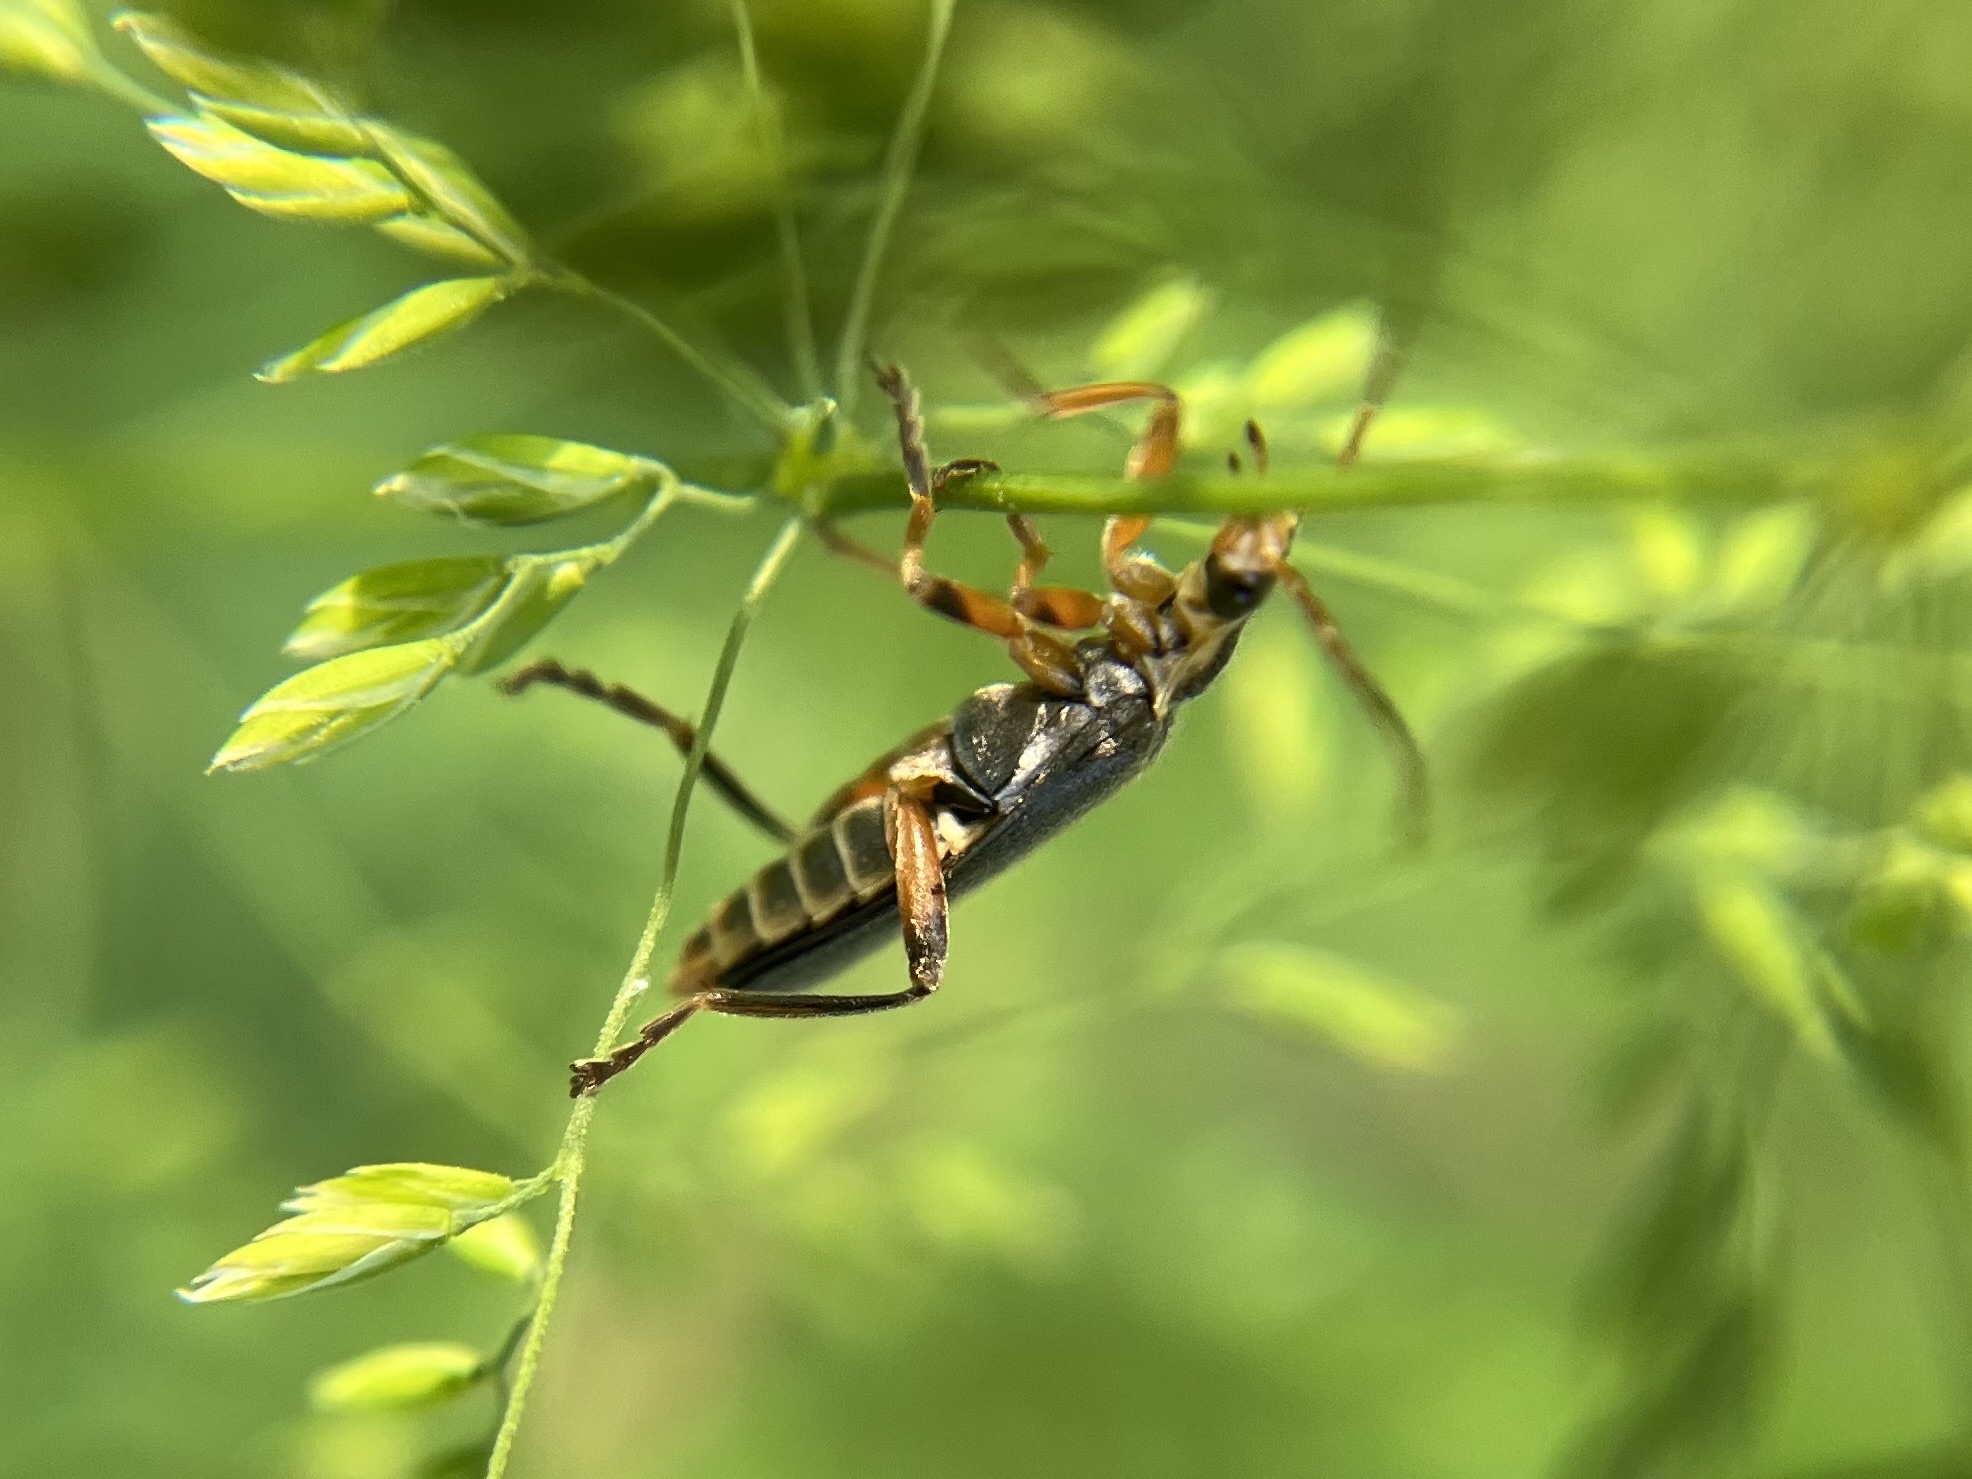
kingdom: Animalia
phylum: Arthropoda
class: Insecta
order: Coleoptera
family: Cantharidae
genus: Cantharis
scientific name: Cantharis nigricans
